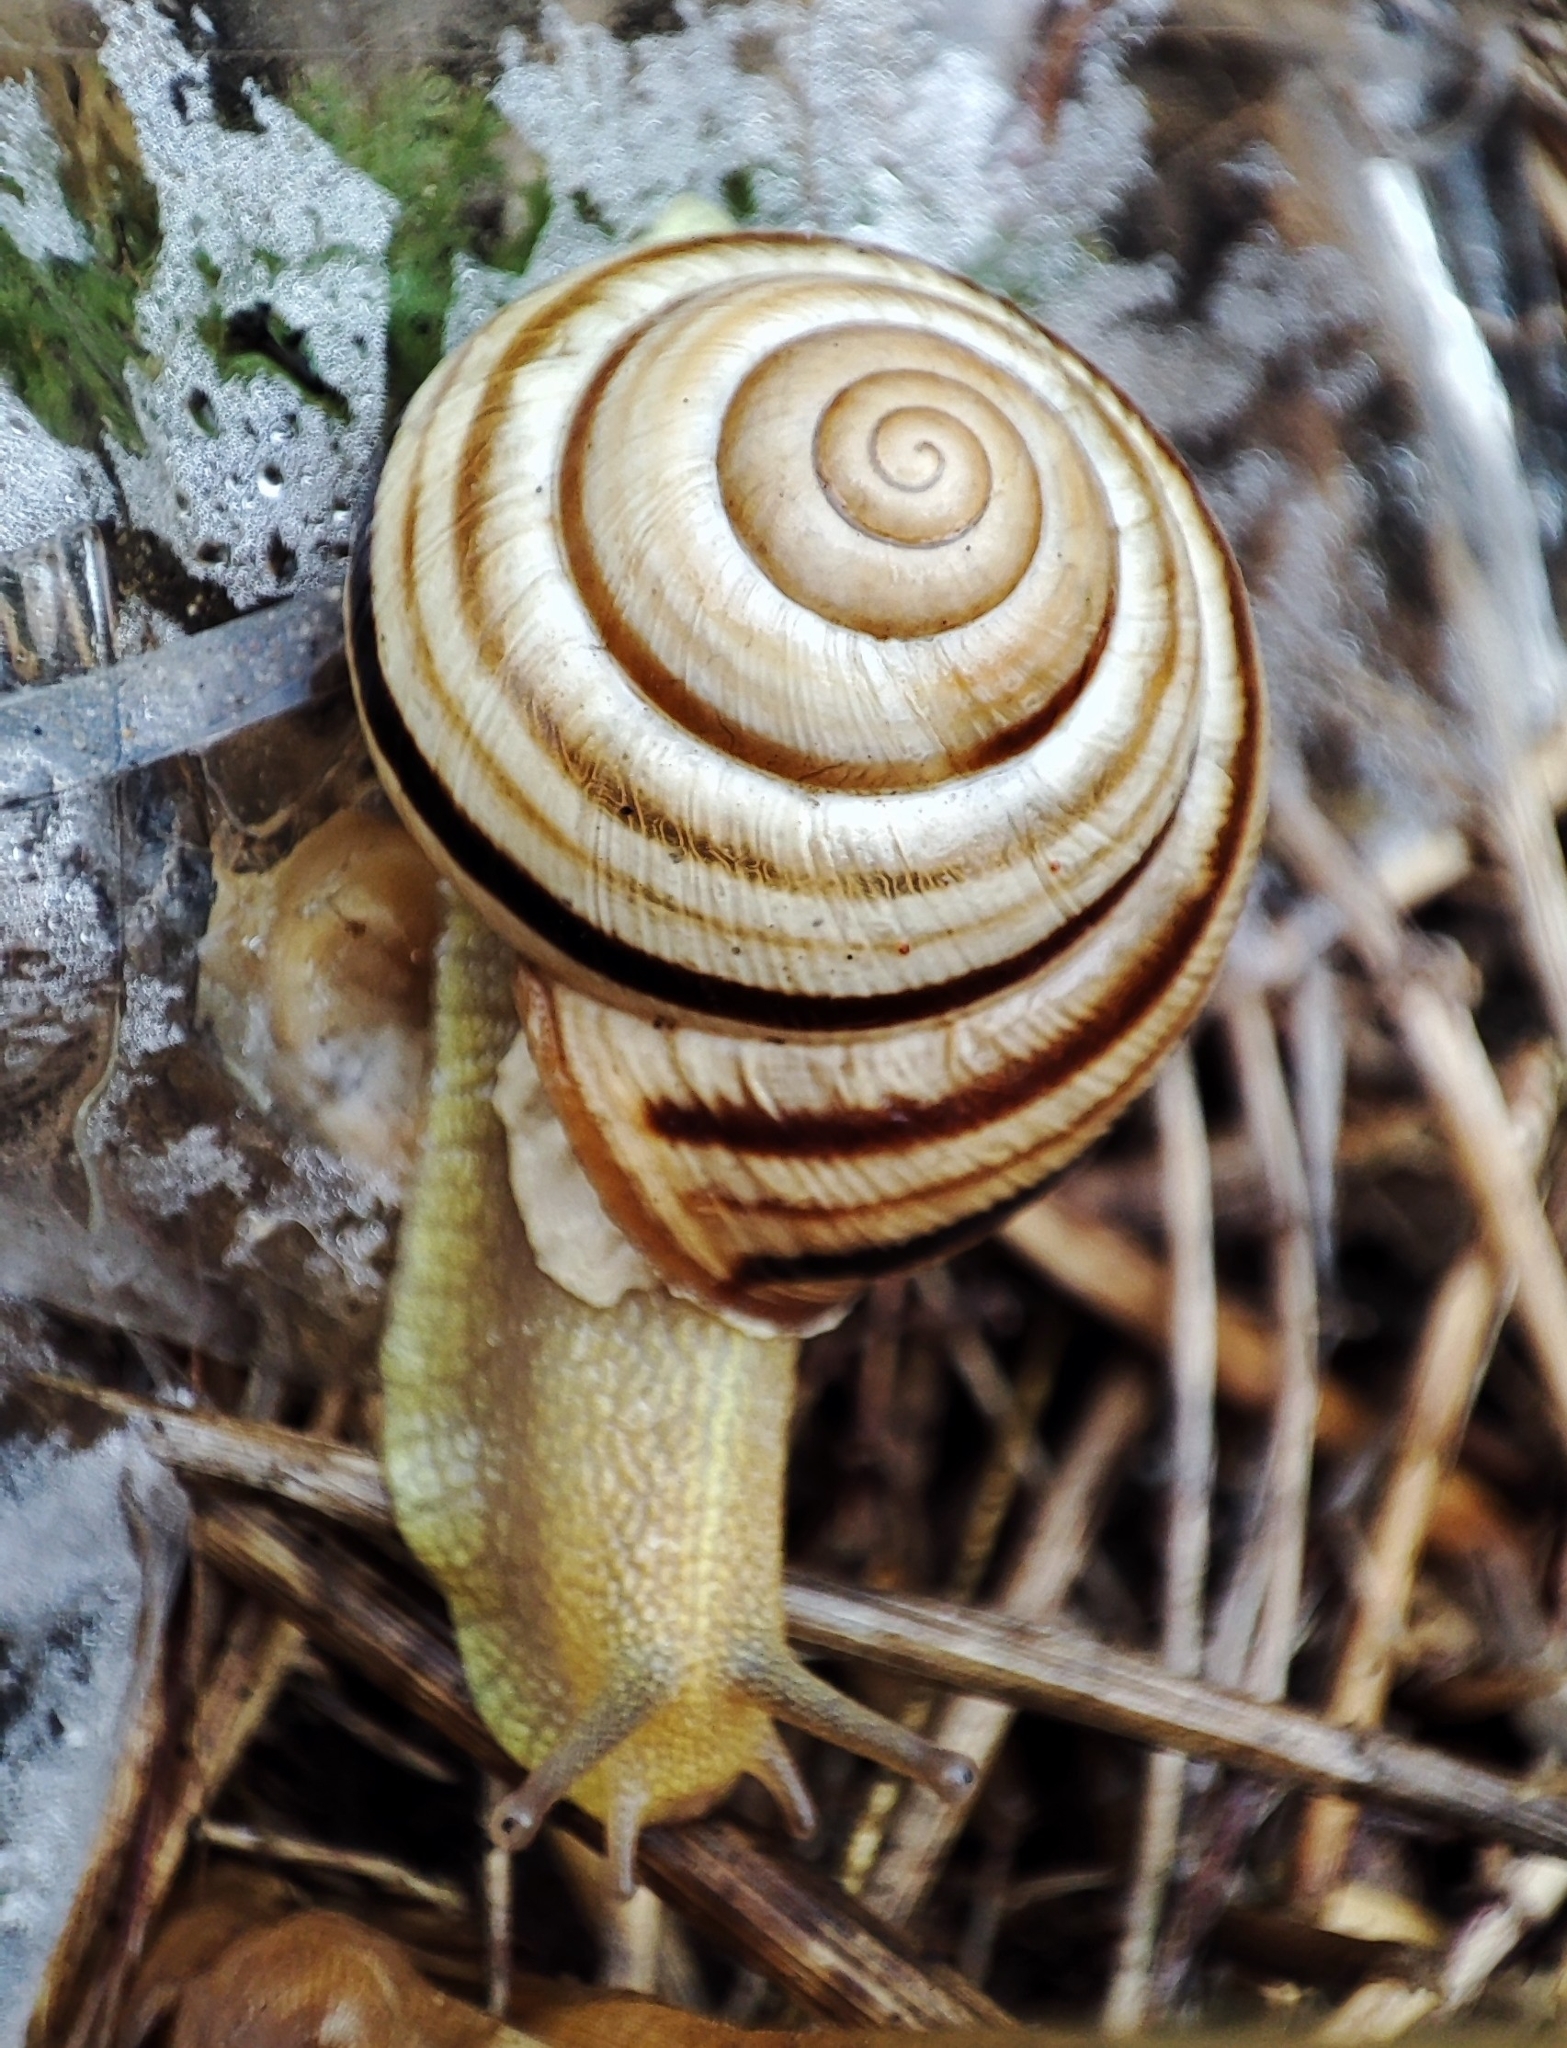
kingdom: Animalia
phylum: Mollusca
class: Gastropoda
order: Stylommatophora
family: Helicidae
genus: Caucasotachea
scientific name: Caucasotachea vindobonensis
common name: European helicid land snail
